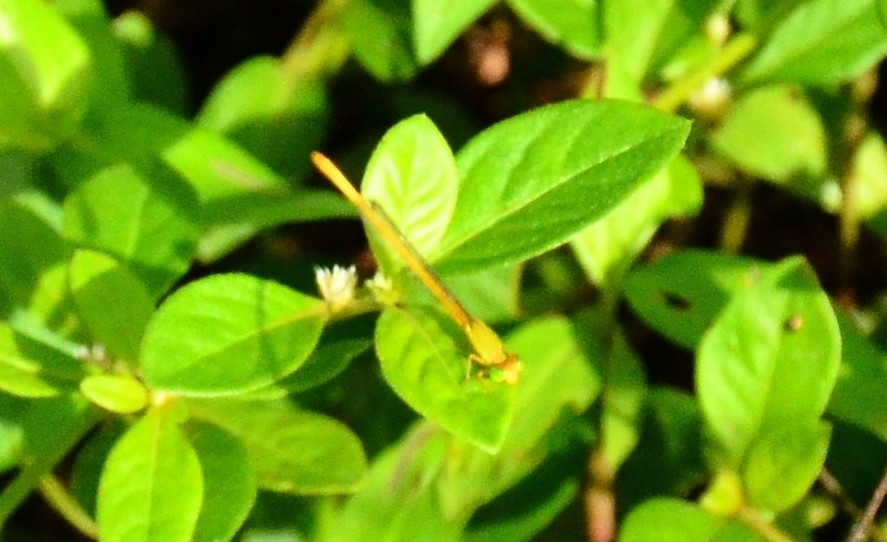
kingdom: Animalia
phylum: Arthropoda
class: Insecta
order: Odonata
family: Coenagrionidae
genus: Ceriagrion
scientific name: Ceriagrion coromandelianum
